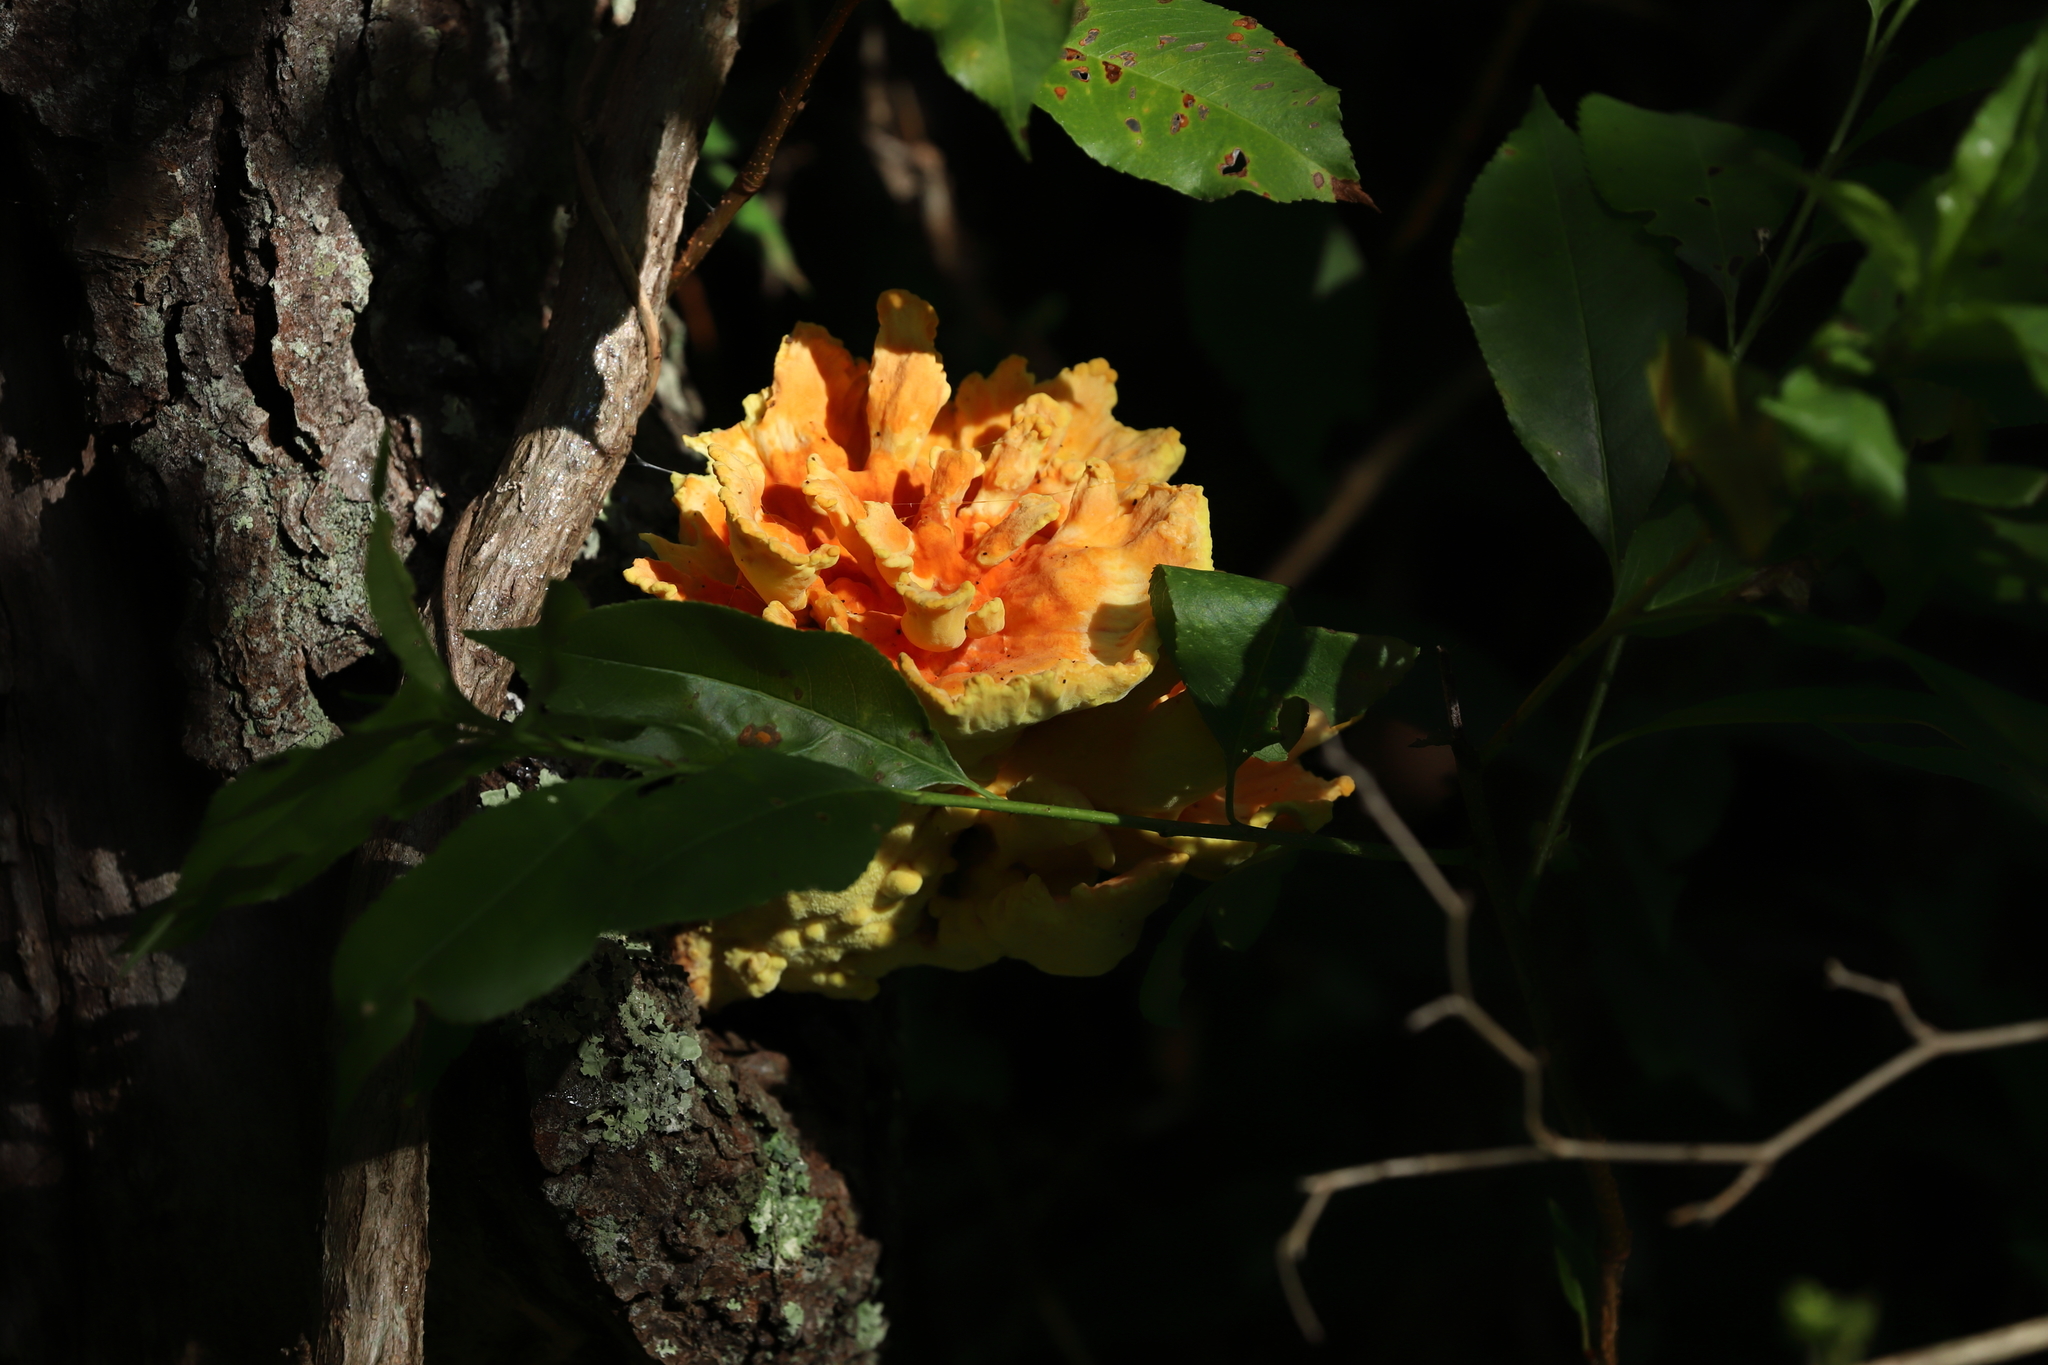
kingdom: Fungi
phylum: Basidiomycota
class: Agaricomycetes
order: Polyporales
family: Laetiporaceae
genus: Laetiporus
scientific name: Laetiporus sulphureus
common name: Chicken of the woods
